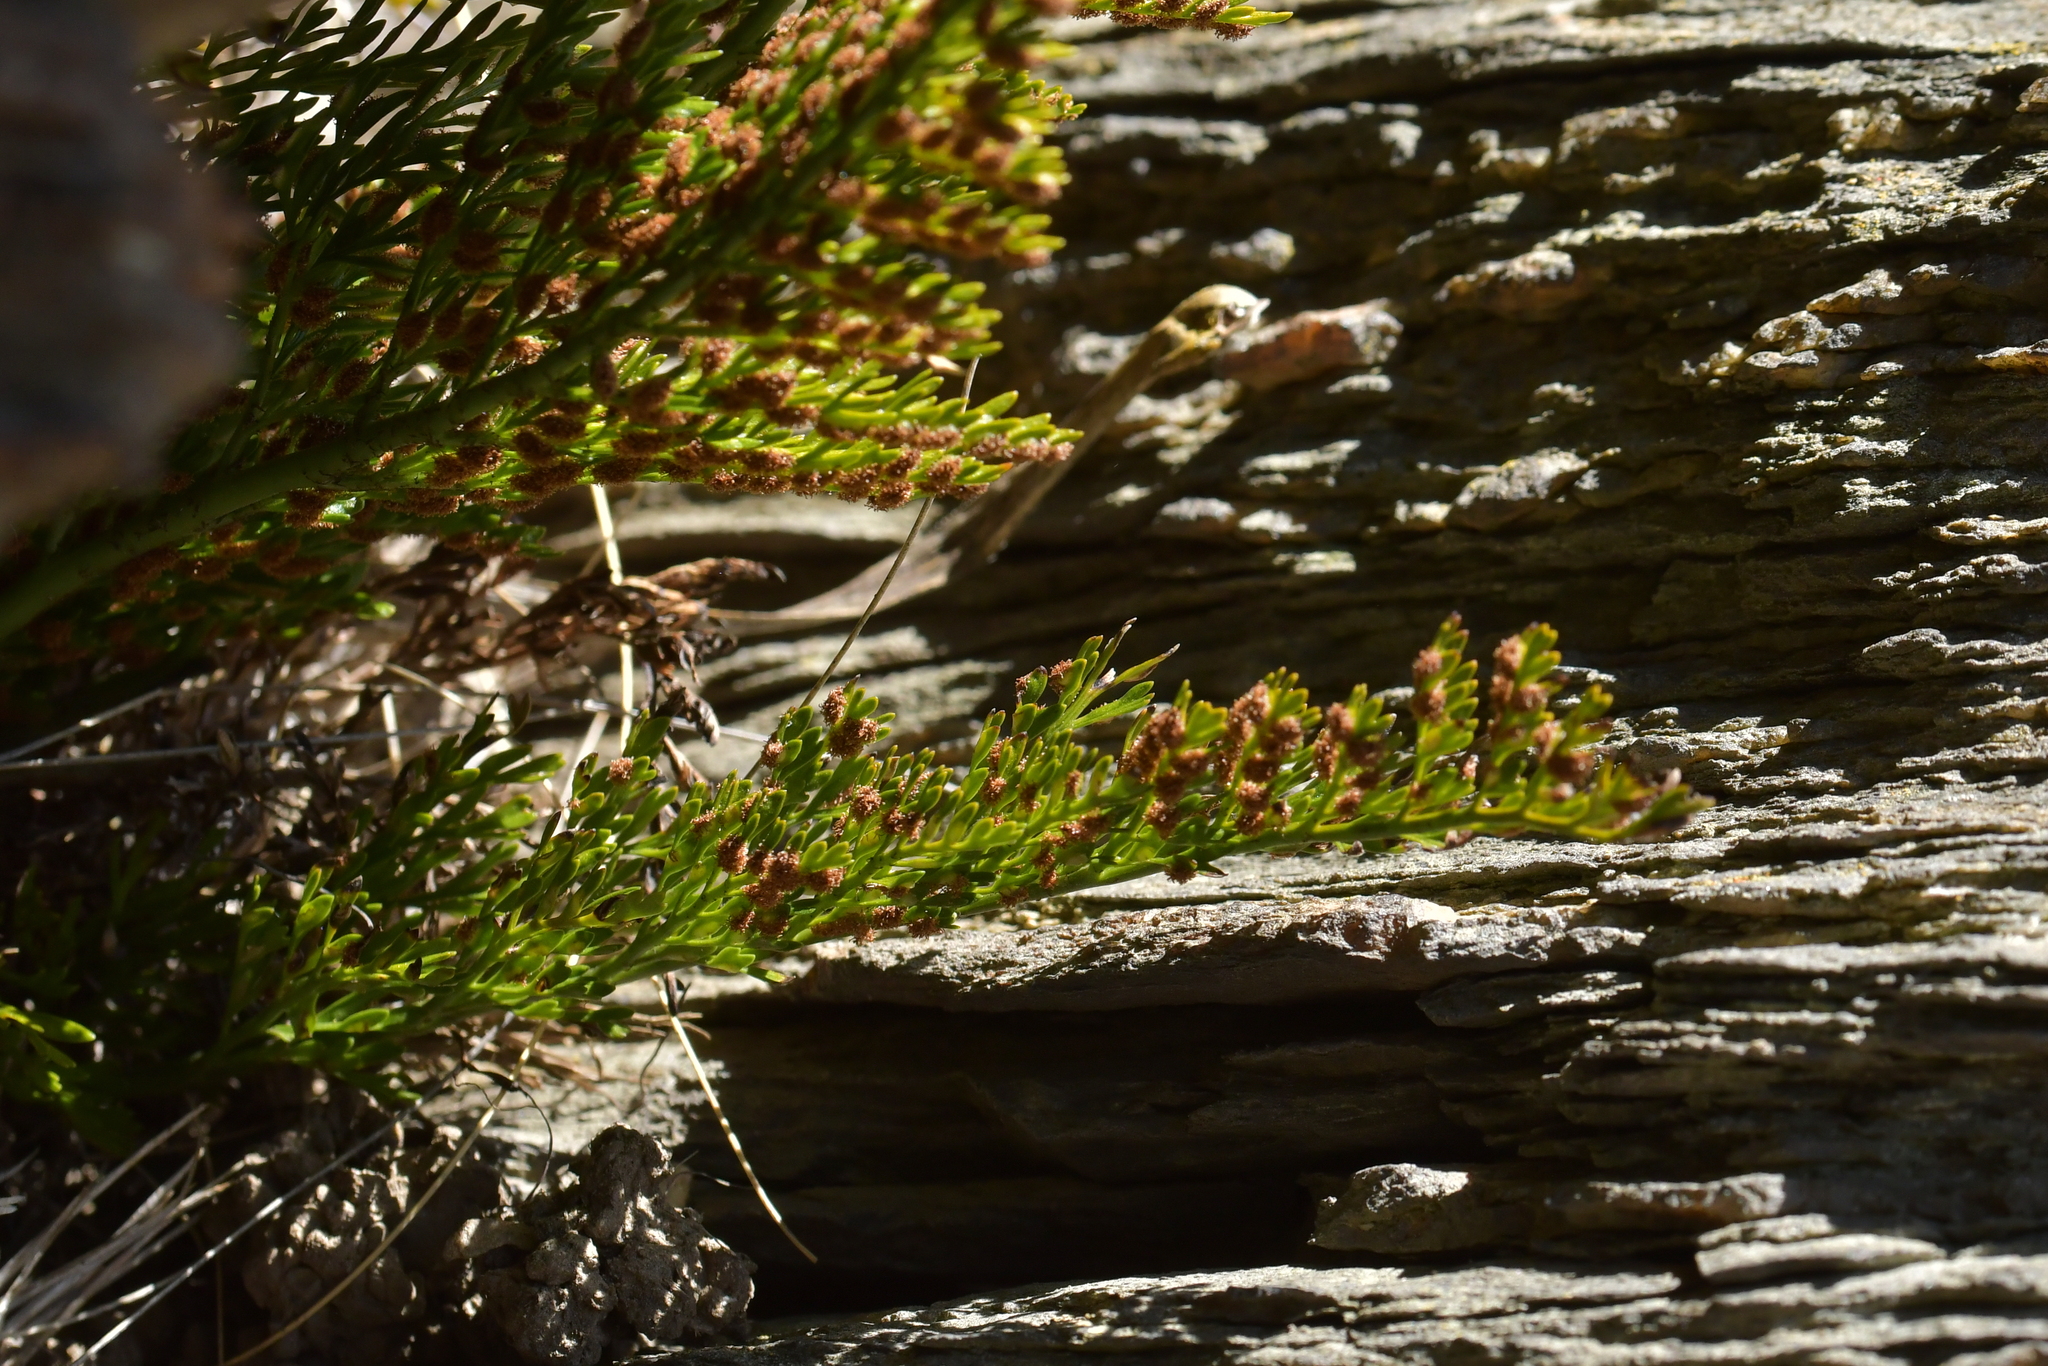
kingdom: Plantae
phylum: Tracheophyta
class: Polypodiopsida
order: Polypodiales
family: Aspleniaceae
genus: Asplenium
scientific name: Asplenium richardii
